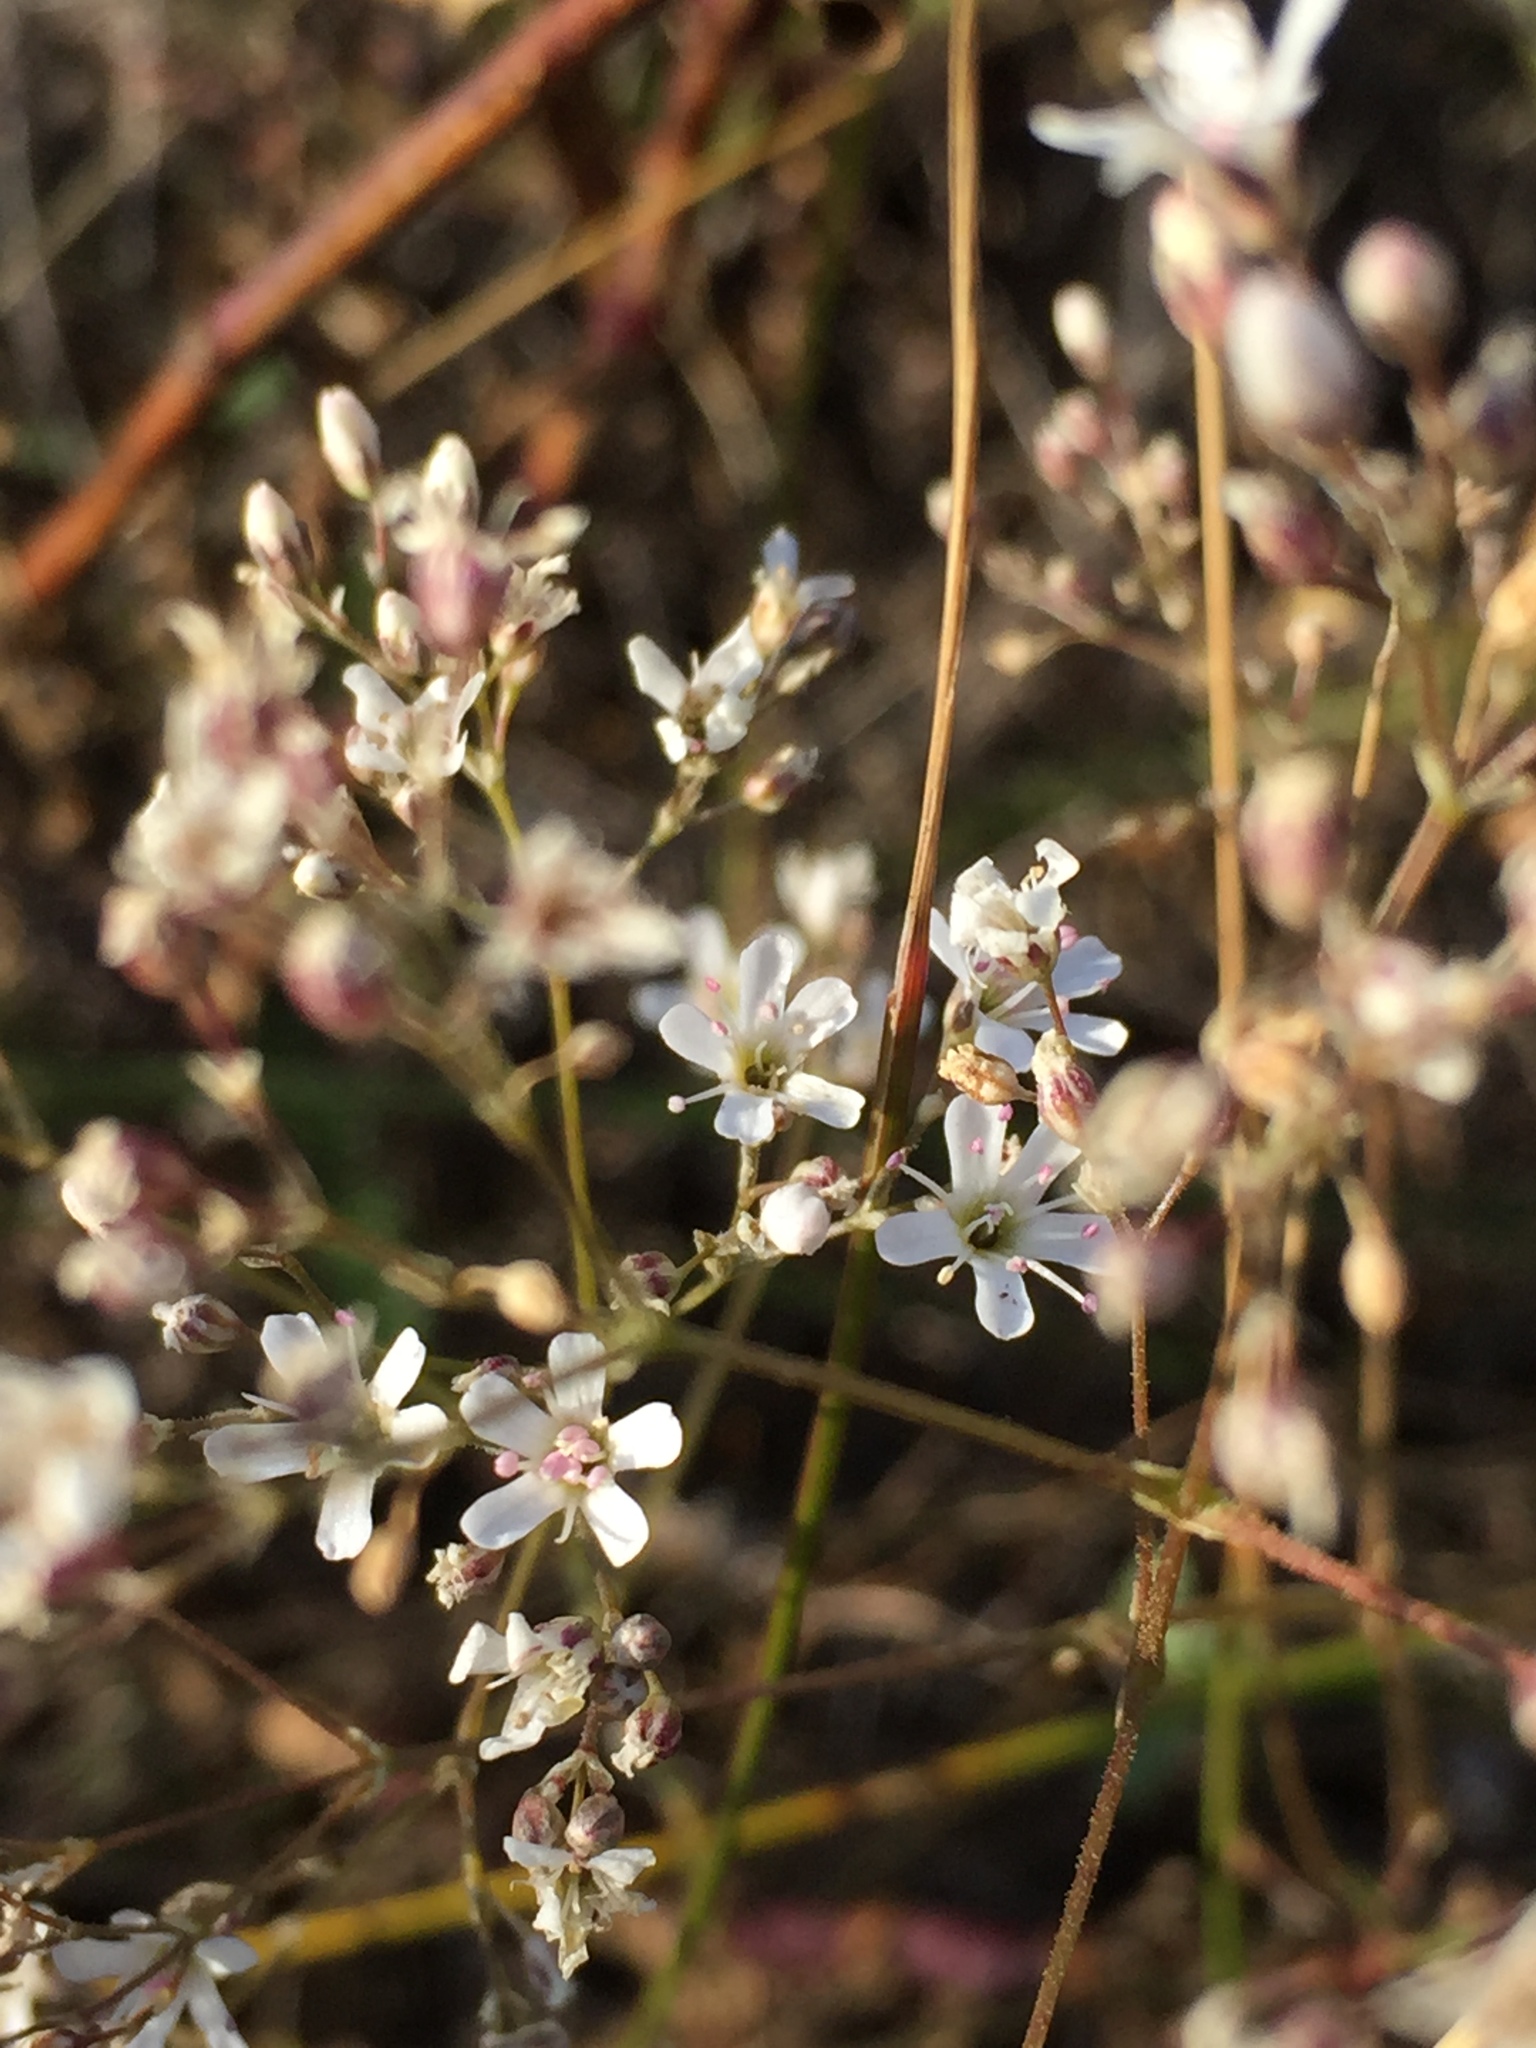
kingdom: Plantae
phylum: Tracheophyta
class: Magnoliopsida
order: Caryophyllales
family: Caryophyllaceae
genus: Gypsophila
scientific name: Gypsophila altissima
